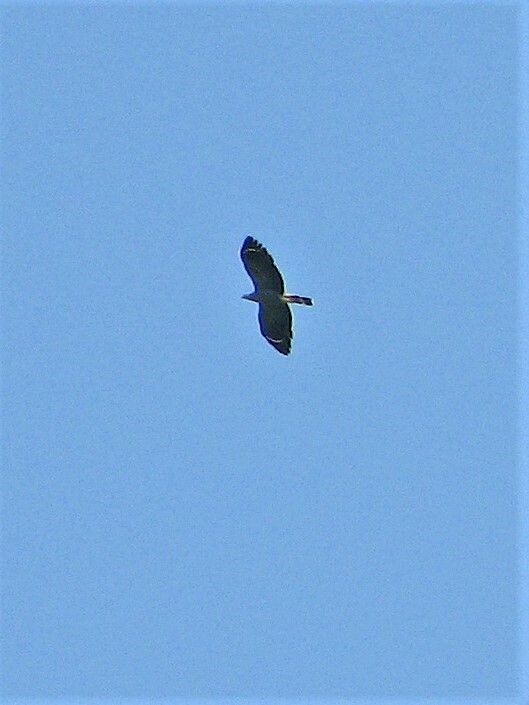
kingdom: Animalia
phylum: Chordata
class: Aves
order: Accipitriformes
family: Accipitridae
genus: Geranospiza
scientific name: Geranospiza caerulescens
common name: Crane hawk
